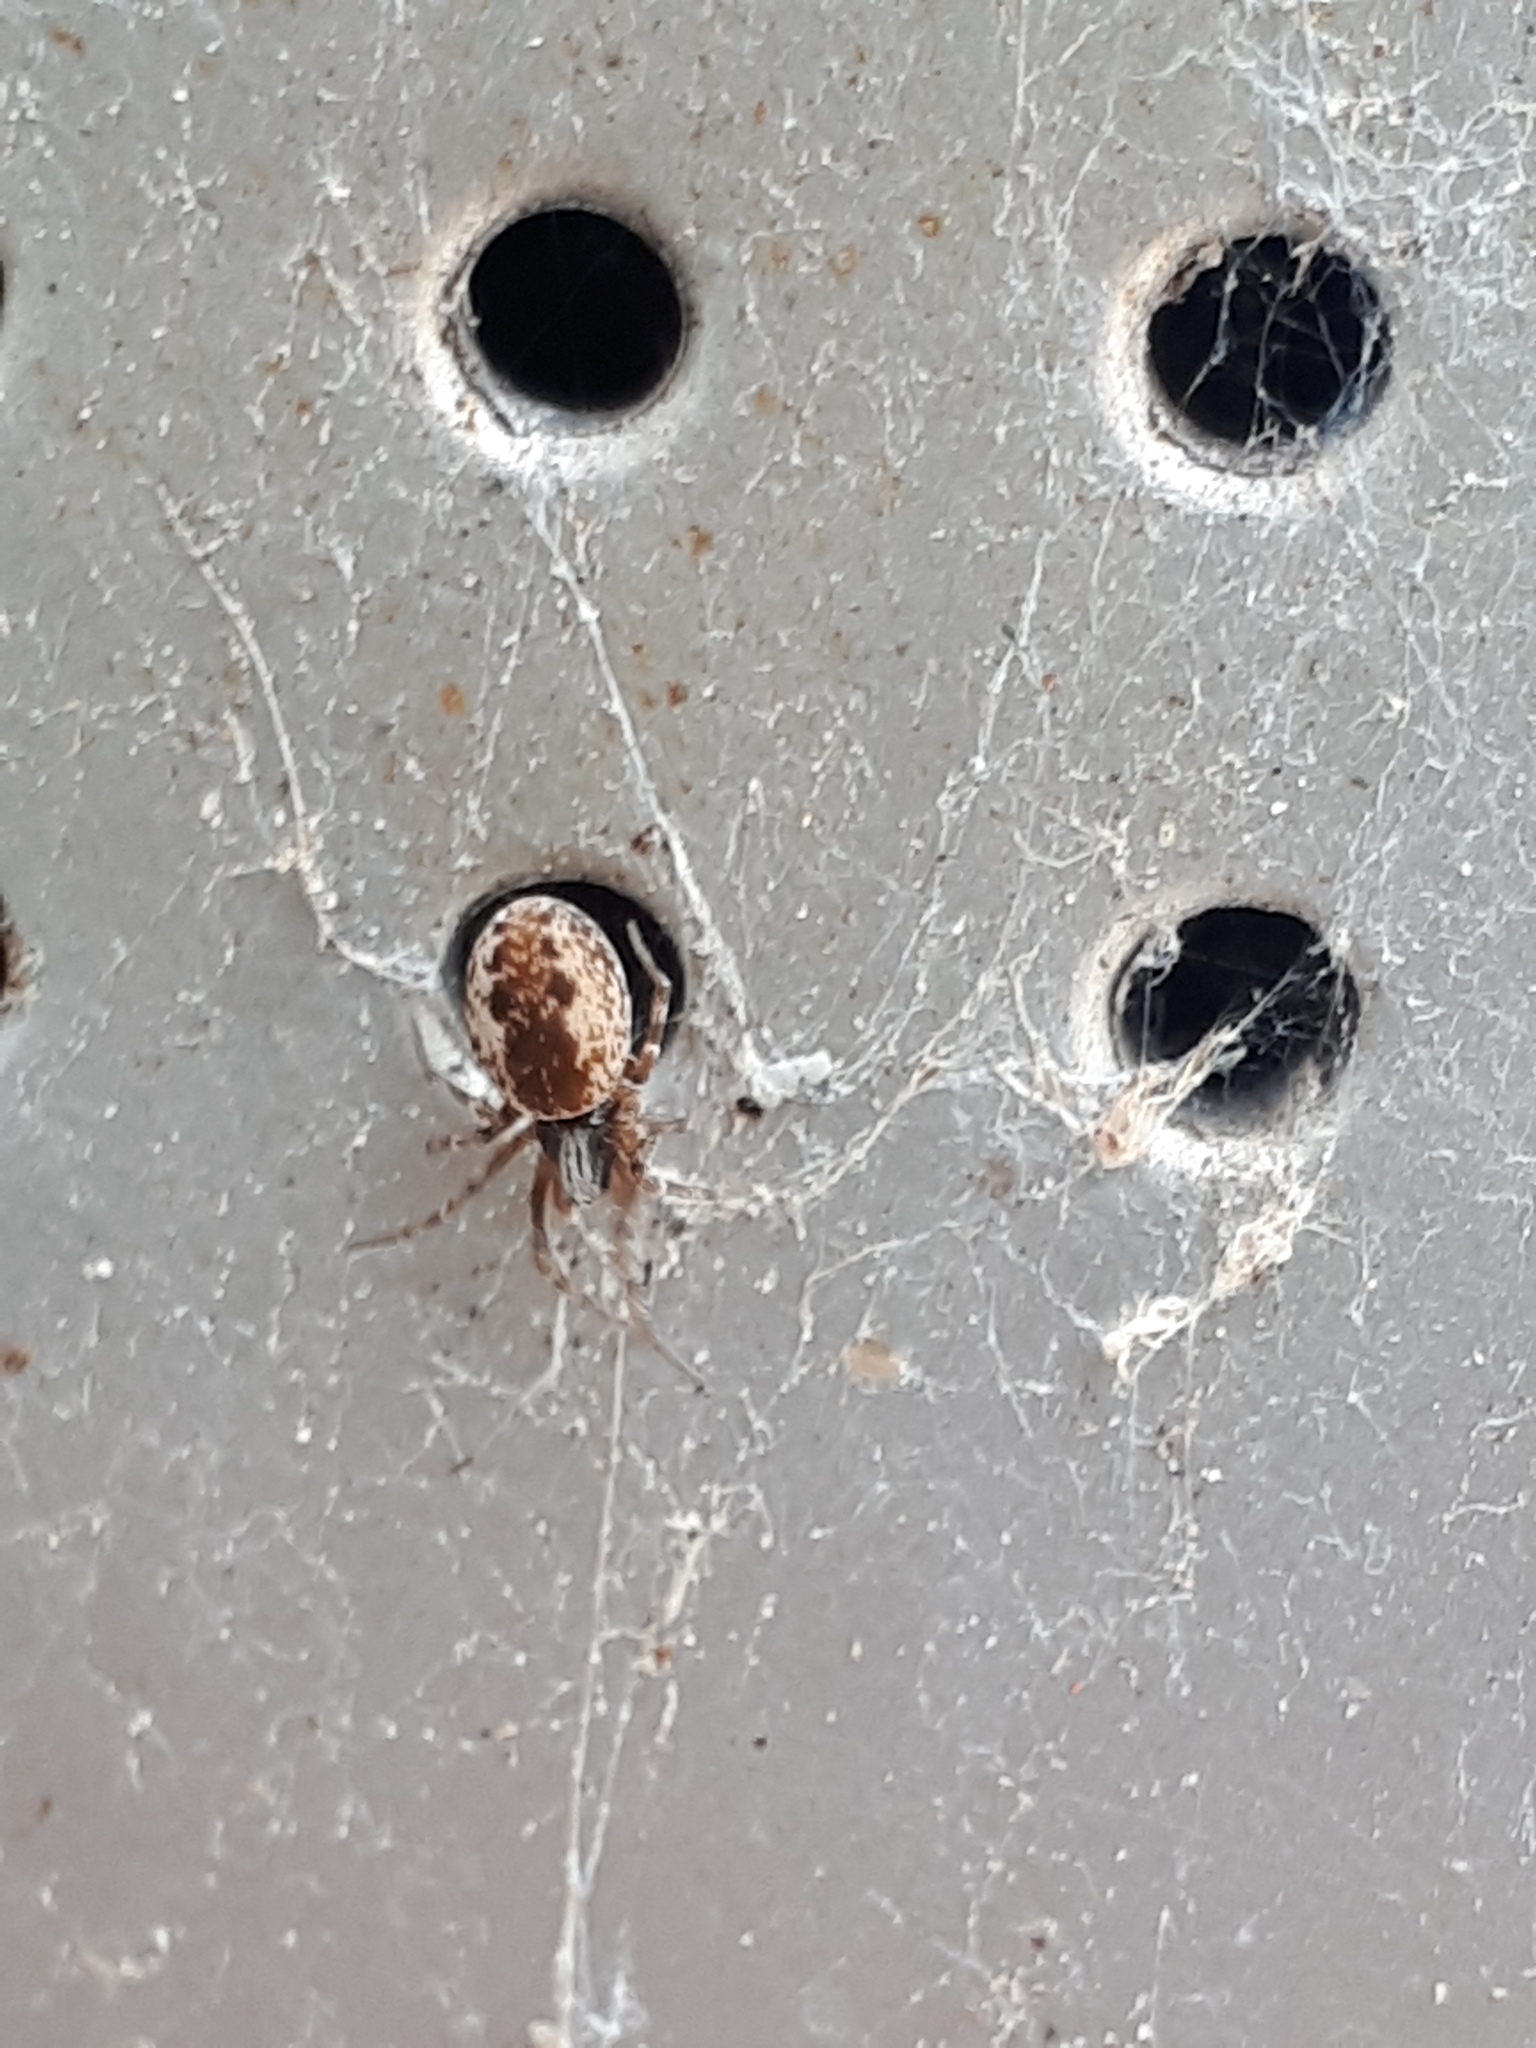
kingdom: Animalia
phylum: Arthropoda
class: Arachnida
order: Araneae
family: Dictynidae
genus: Brigittea
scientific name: Brigittea civica
